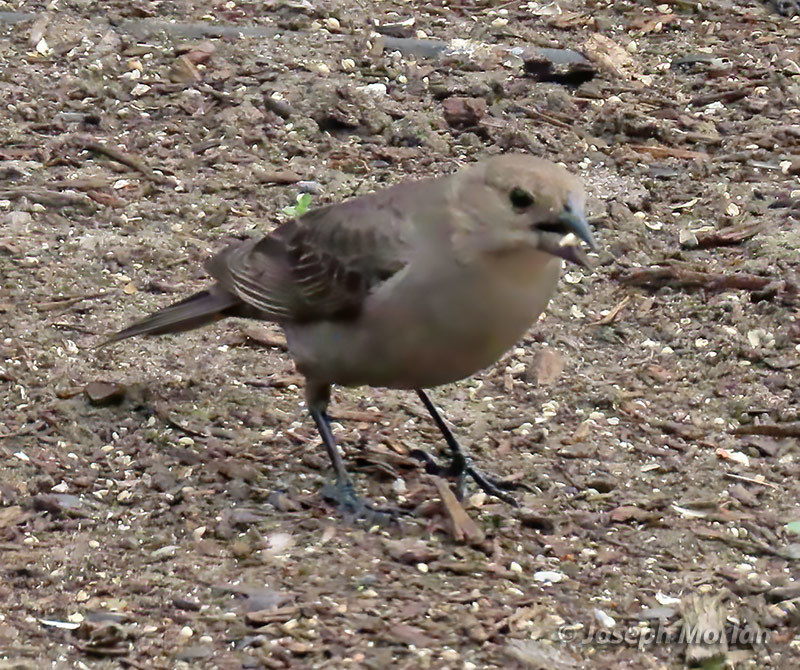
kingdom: Animalia
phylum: Chordata
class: Aves
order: Passeriformes
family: Icteridae
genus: Molothrus
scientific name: Molothrus ater
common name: Brown-headed cowbird
